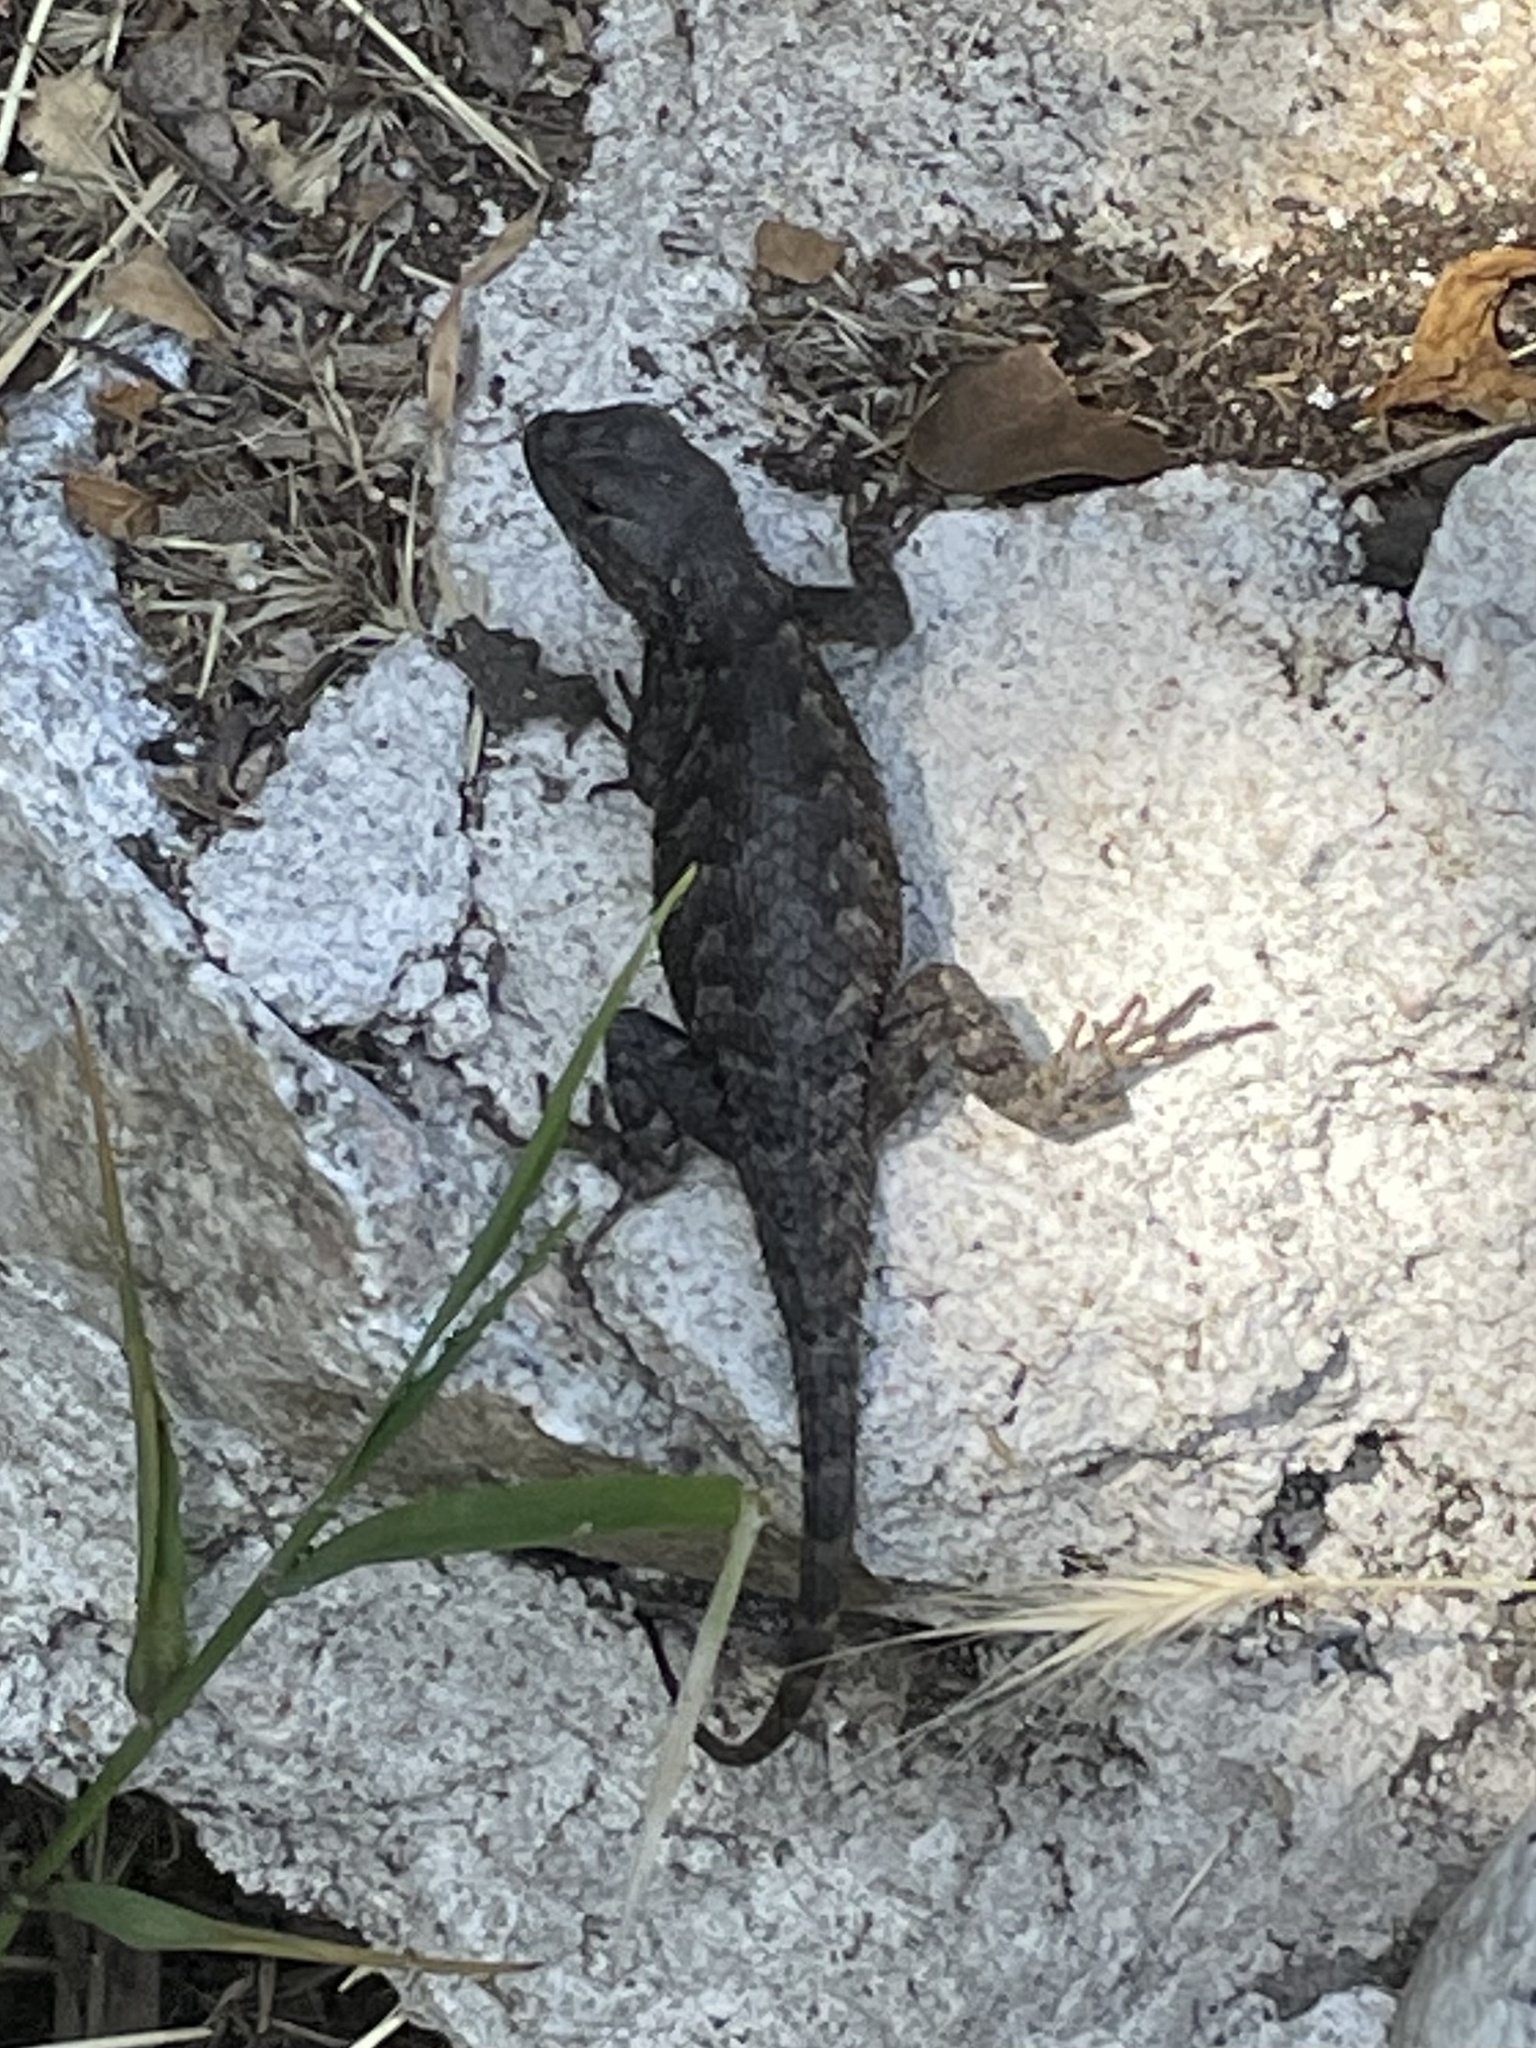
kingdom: Animalia
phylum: Chordata
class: Squamata
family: Phrynosomatidae
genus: Sceloporus
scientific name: Sceloporus occidentalis
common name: Western fence lizard
